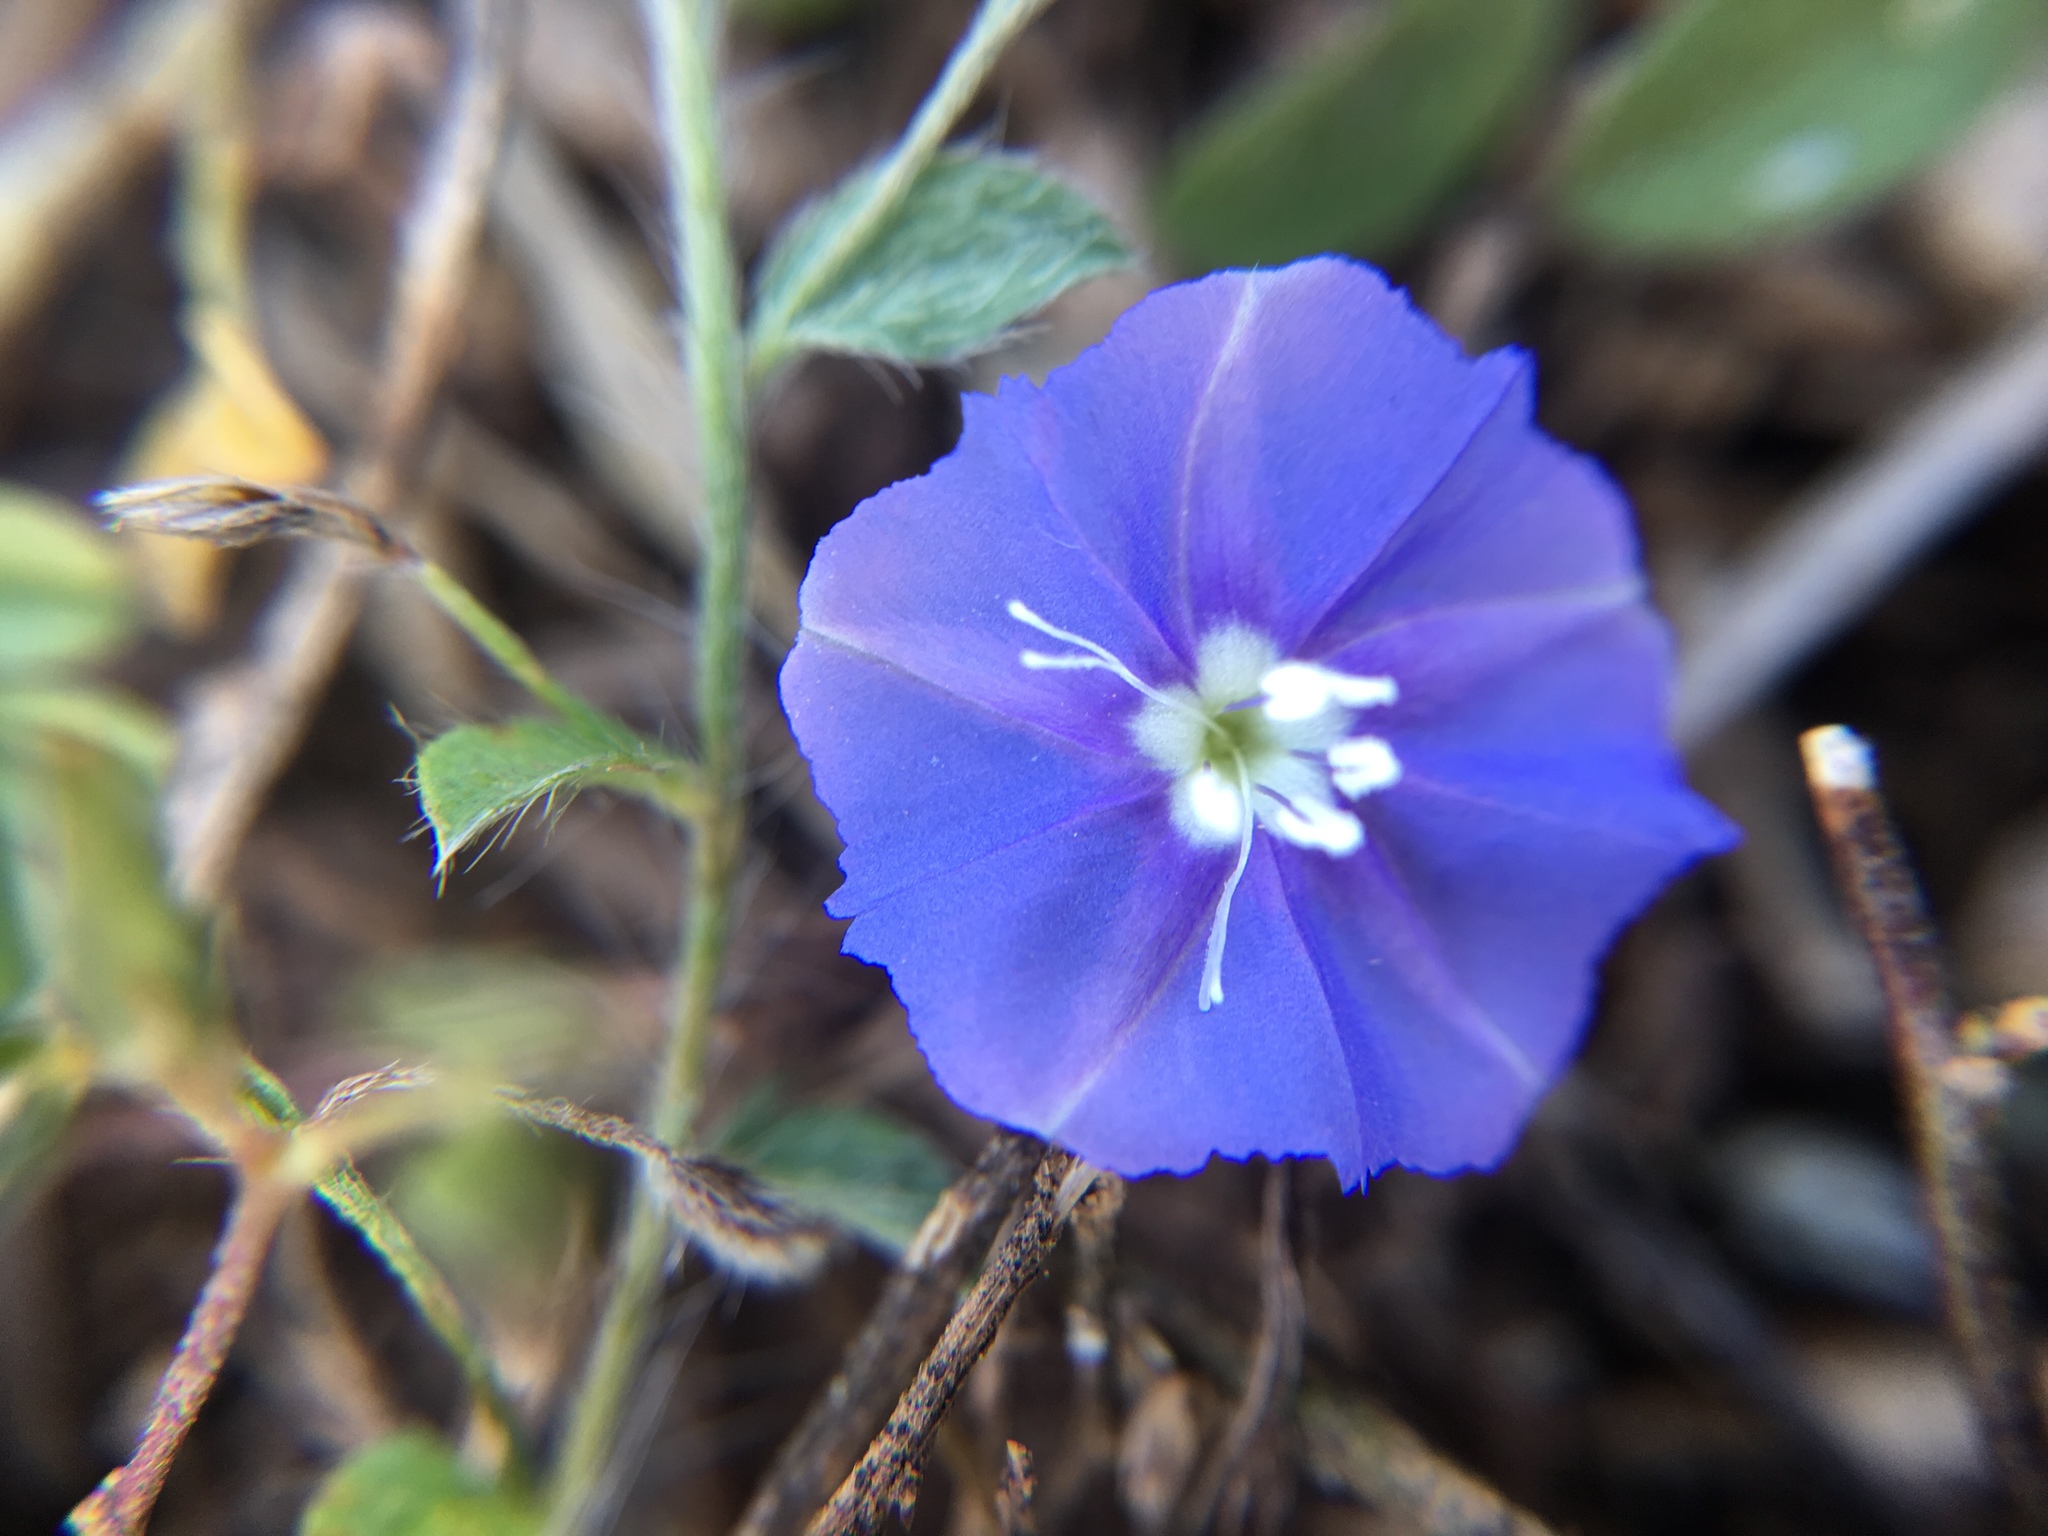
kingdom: Plantae
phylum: Tracheophyta
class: Magnoliopsida
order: Solanales
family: Convolvulaceae
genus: Evolvulus
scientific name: Evolvulus alsinoides
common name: Slender dwarf morning-glory
